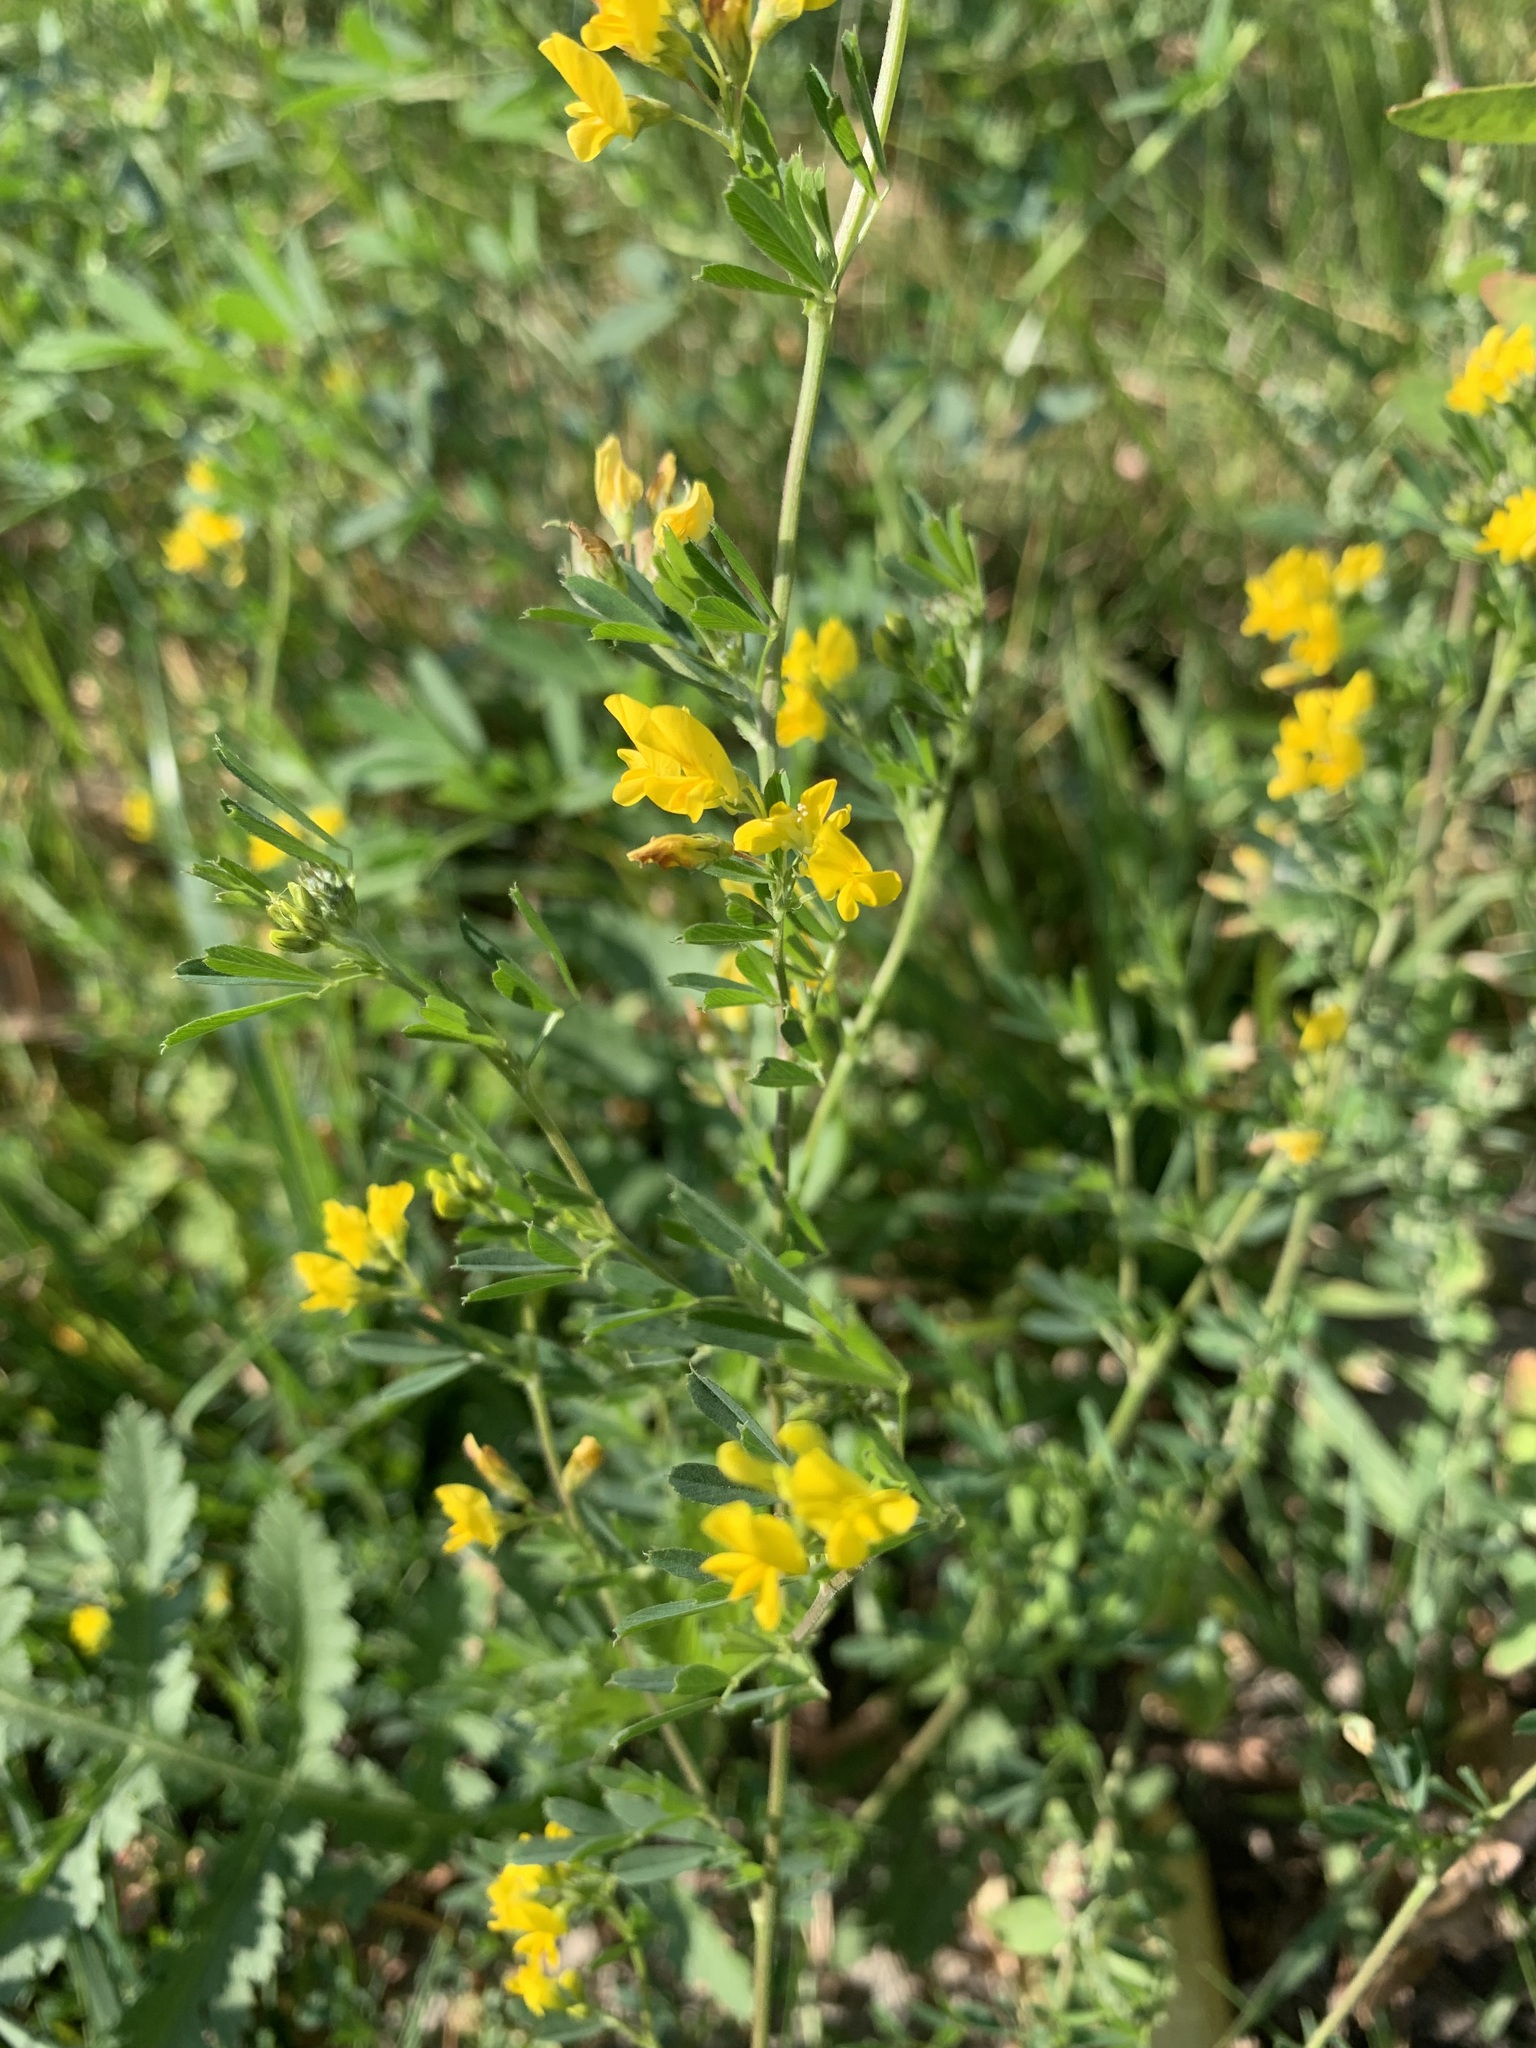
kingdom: Plantae
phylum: Tracheophyta
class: Magnoliopsida
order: Fabales
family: Fabaceae
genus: Medicago
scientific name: Medicago falcata
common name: Sickle medick
